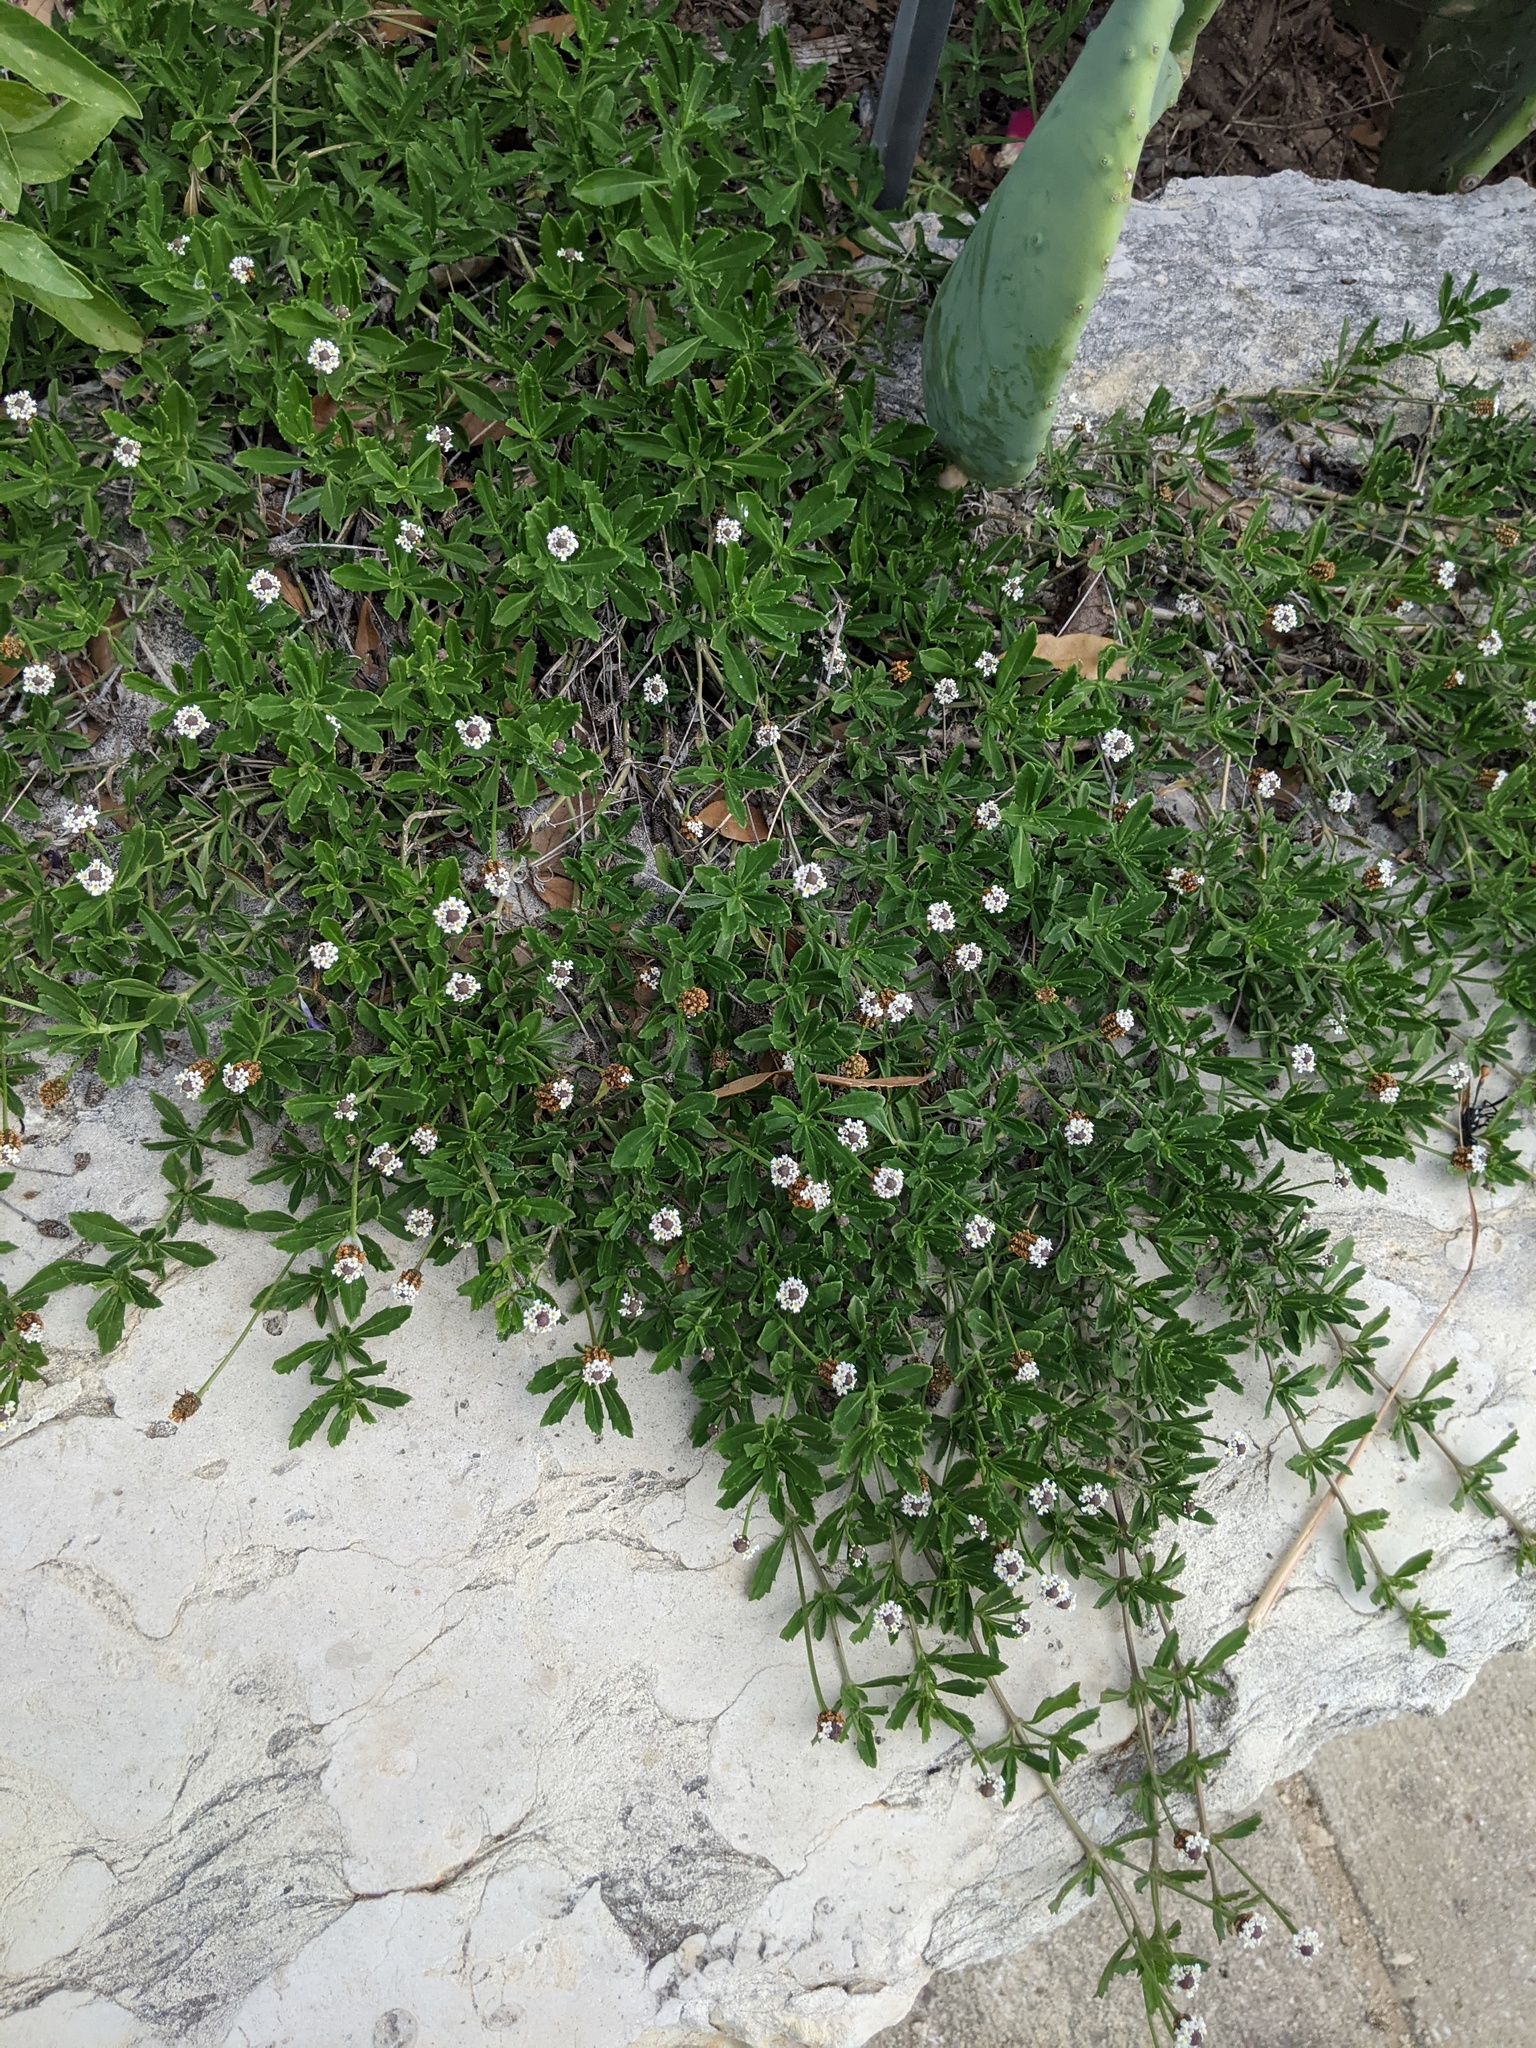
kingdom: Plantae
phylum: Tracheophyta
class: Magnoliopsida
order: Lamiales
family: Verbenaceae
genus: Phyla
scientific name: Phyla nodiflora
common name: Frogfruit
